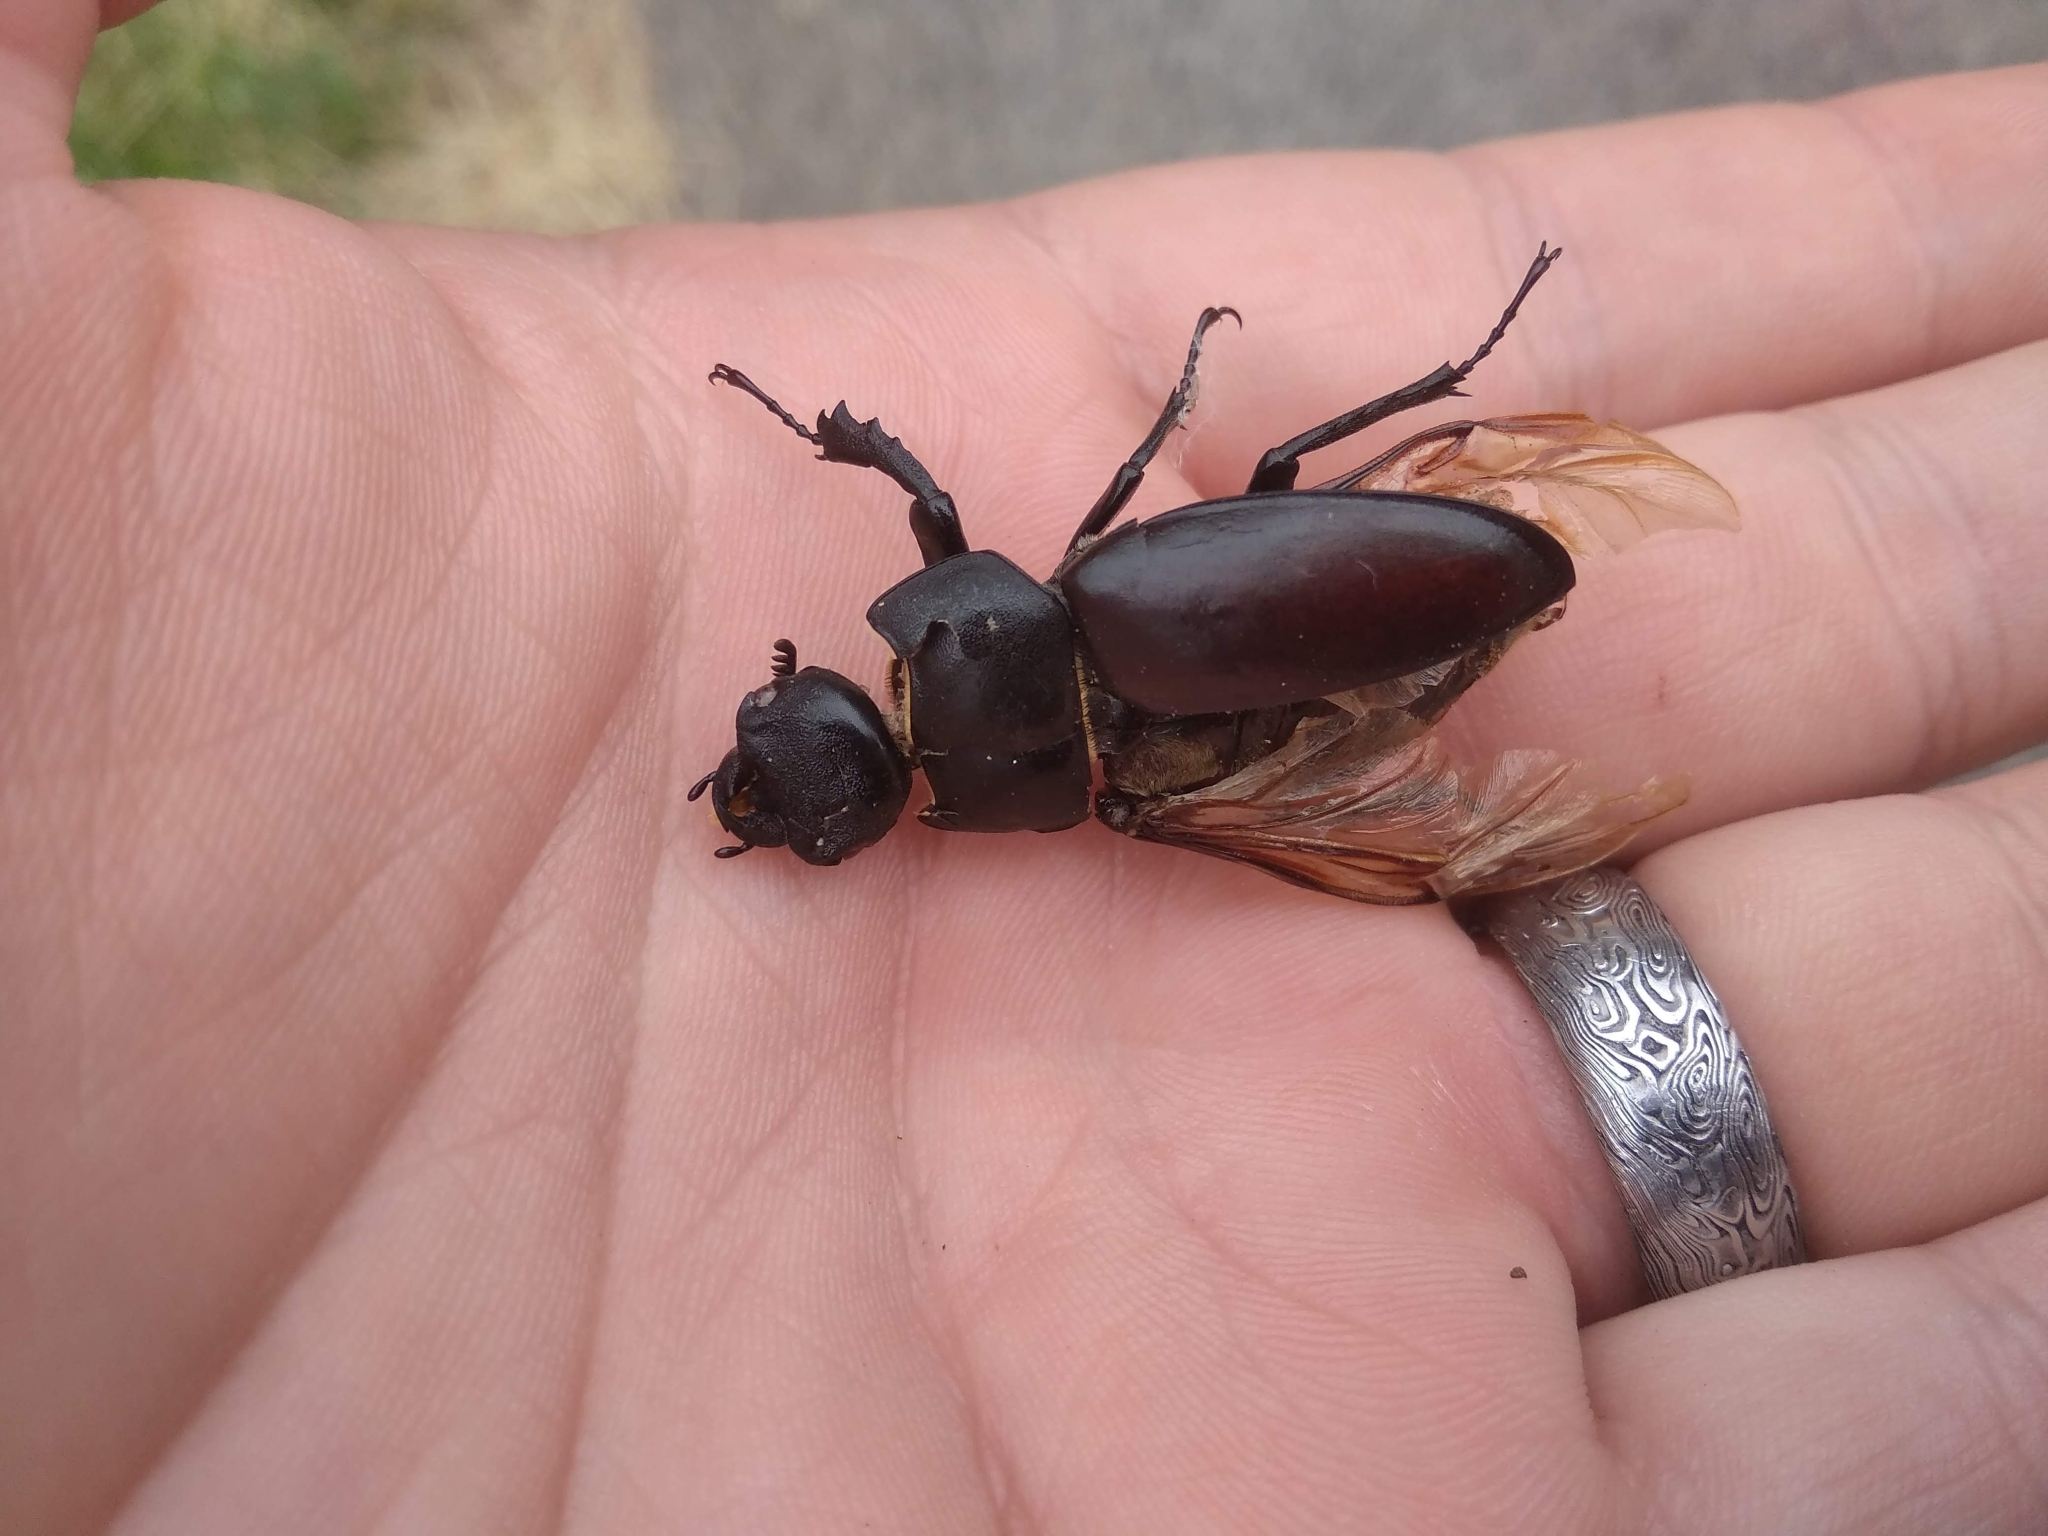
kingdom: Animalia
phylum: Arthropoda
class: Insecta
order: Coleoptera
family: Lucanidae
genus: Lucanus
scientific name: Lucanus cervus
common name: Stag beetle
